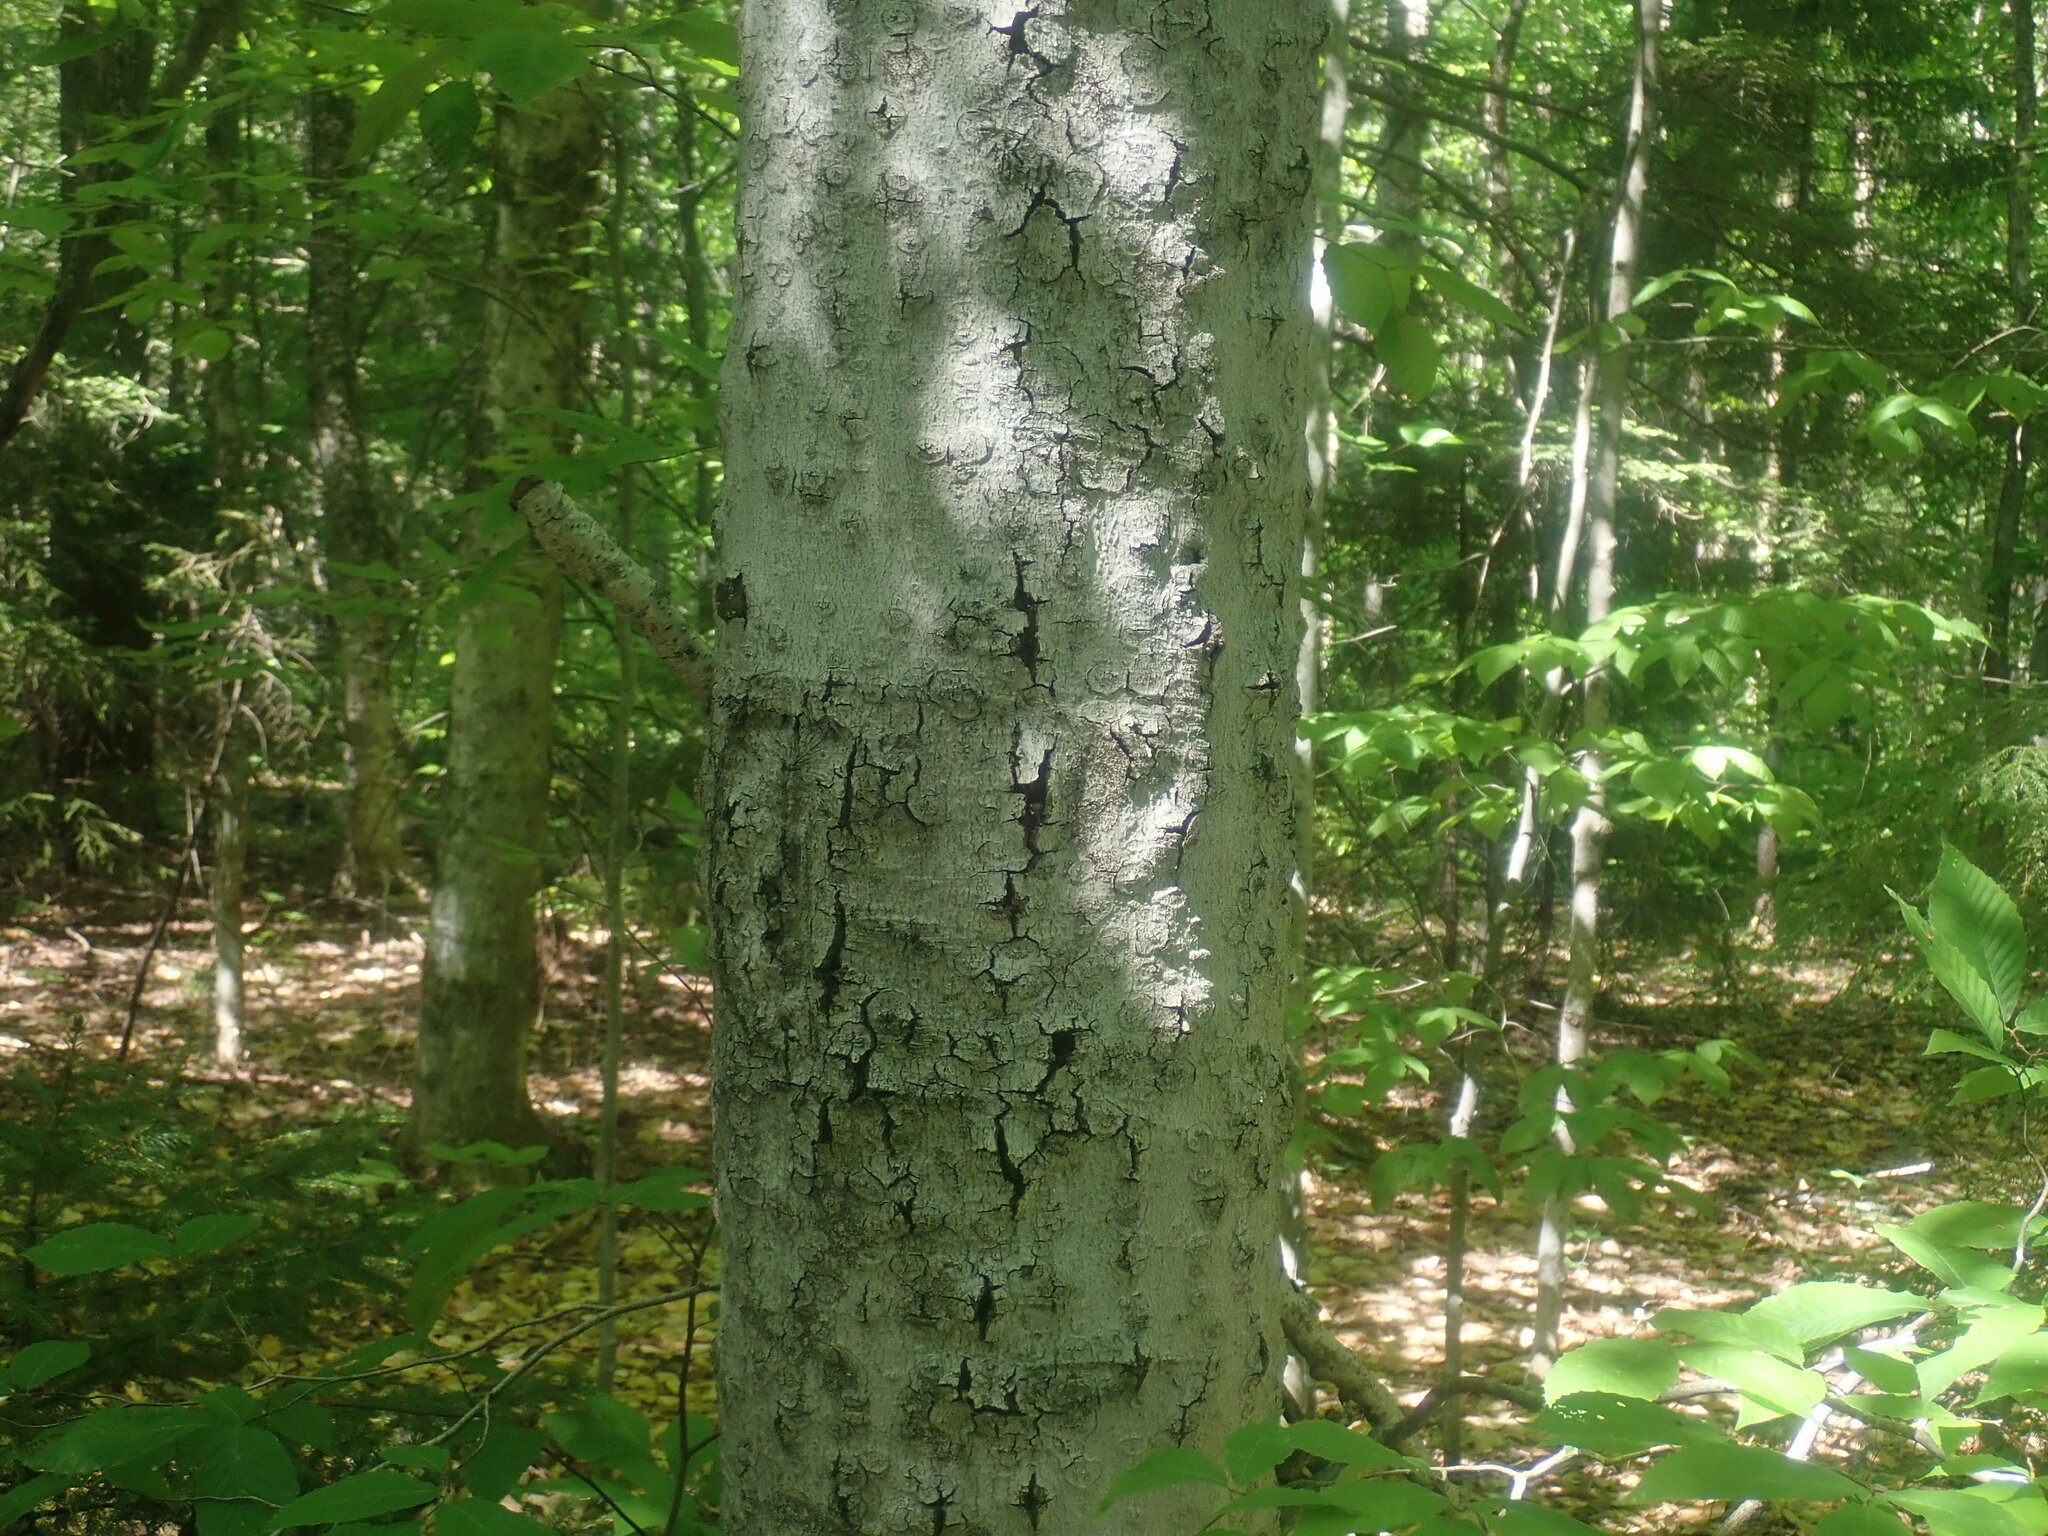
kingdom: Fungi
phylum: Ascomycota
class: Sordariomycetes
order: Hypocreales
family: Nectriaceae
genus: Neonectria
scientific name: Neonectria faginata
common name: Beech bark canker
